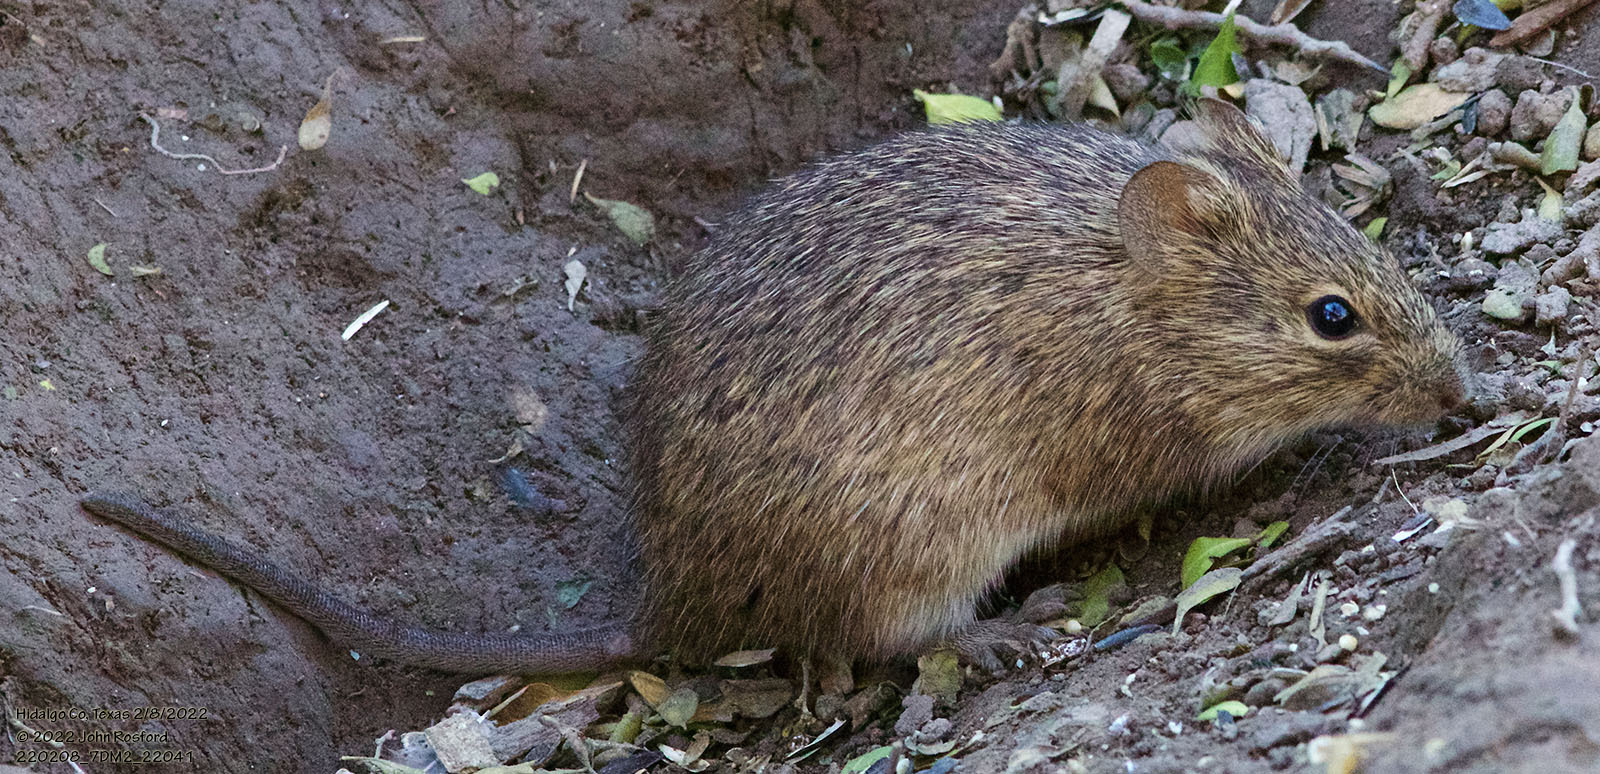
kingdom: Animalia
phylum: Chordata
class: Mammalia
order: Rodentia
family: Cricetidae
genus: Sigmodon
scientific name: Sigmodon hispidus
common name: Hispid cotton rat
